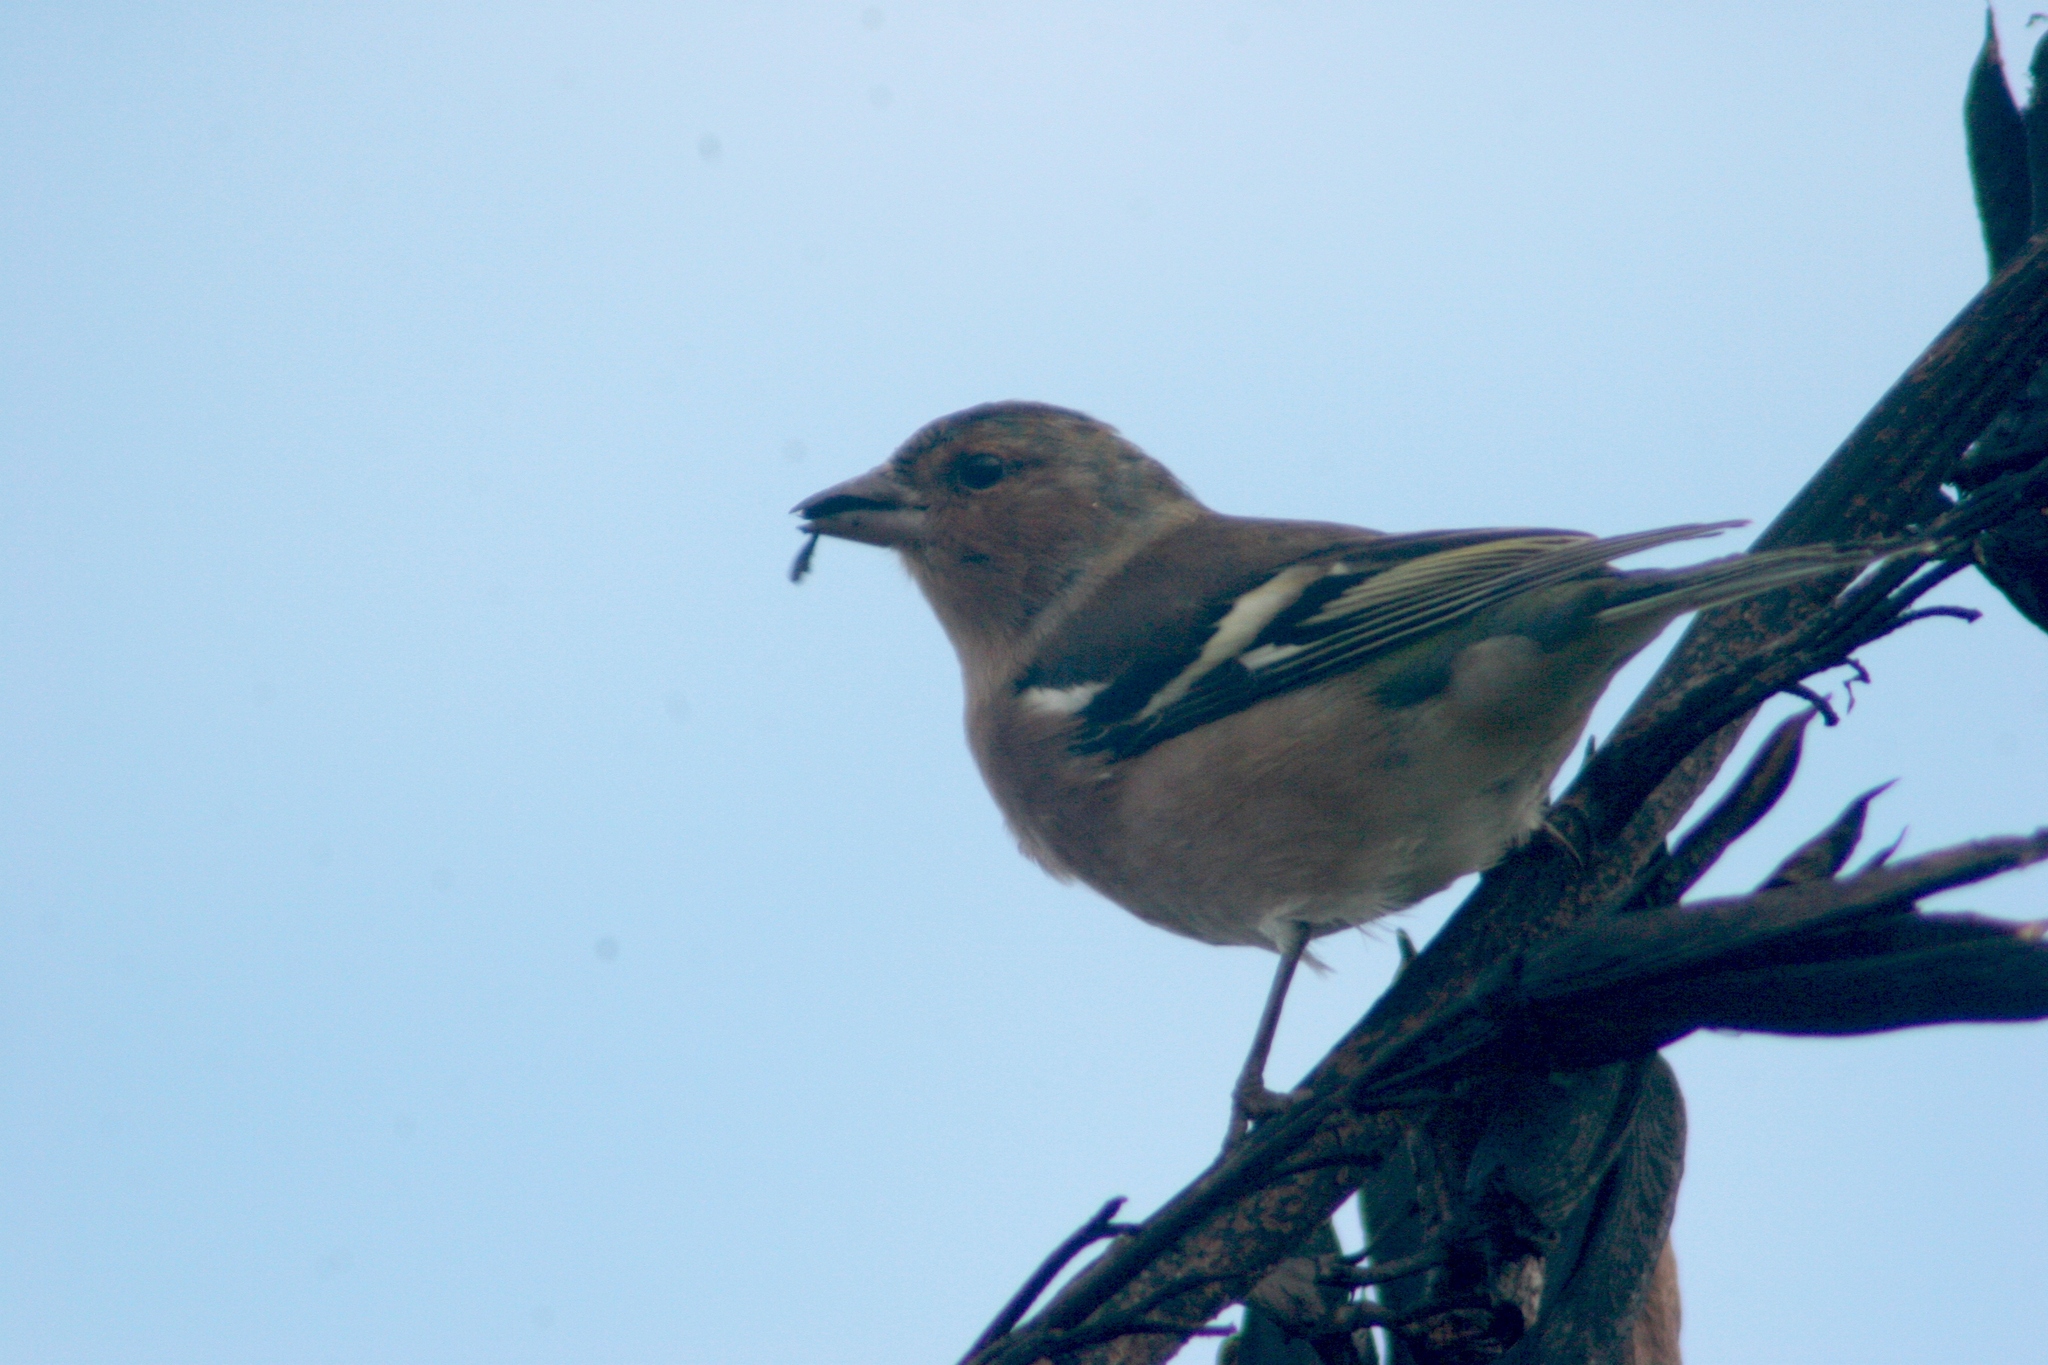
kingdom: Animalia
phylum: Chordata
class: Aves
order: Passeriformes
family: Fringillidae
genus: Fringilla
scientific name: Fringilla coelebs
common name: Common chaffinch
